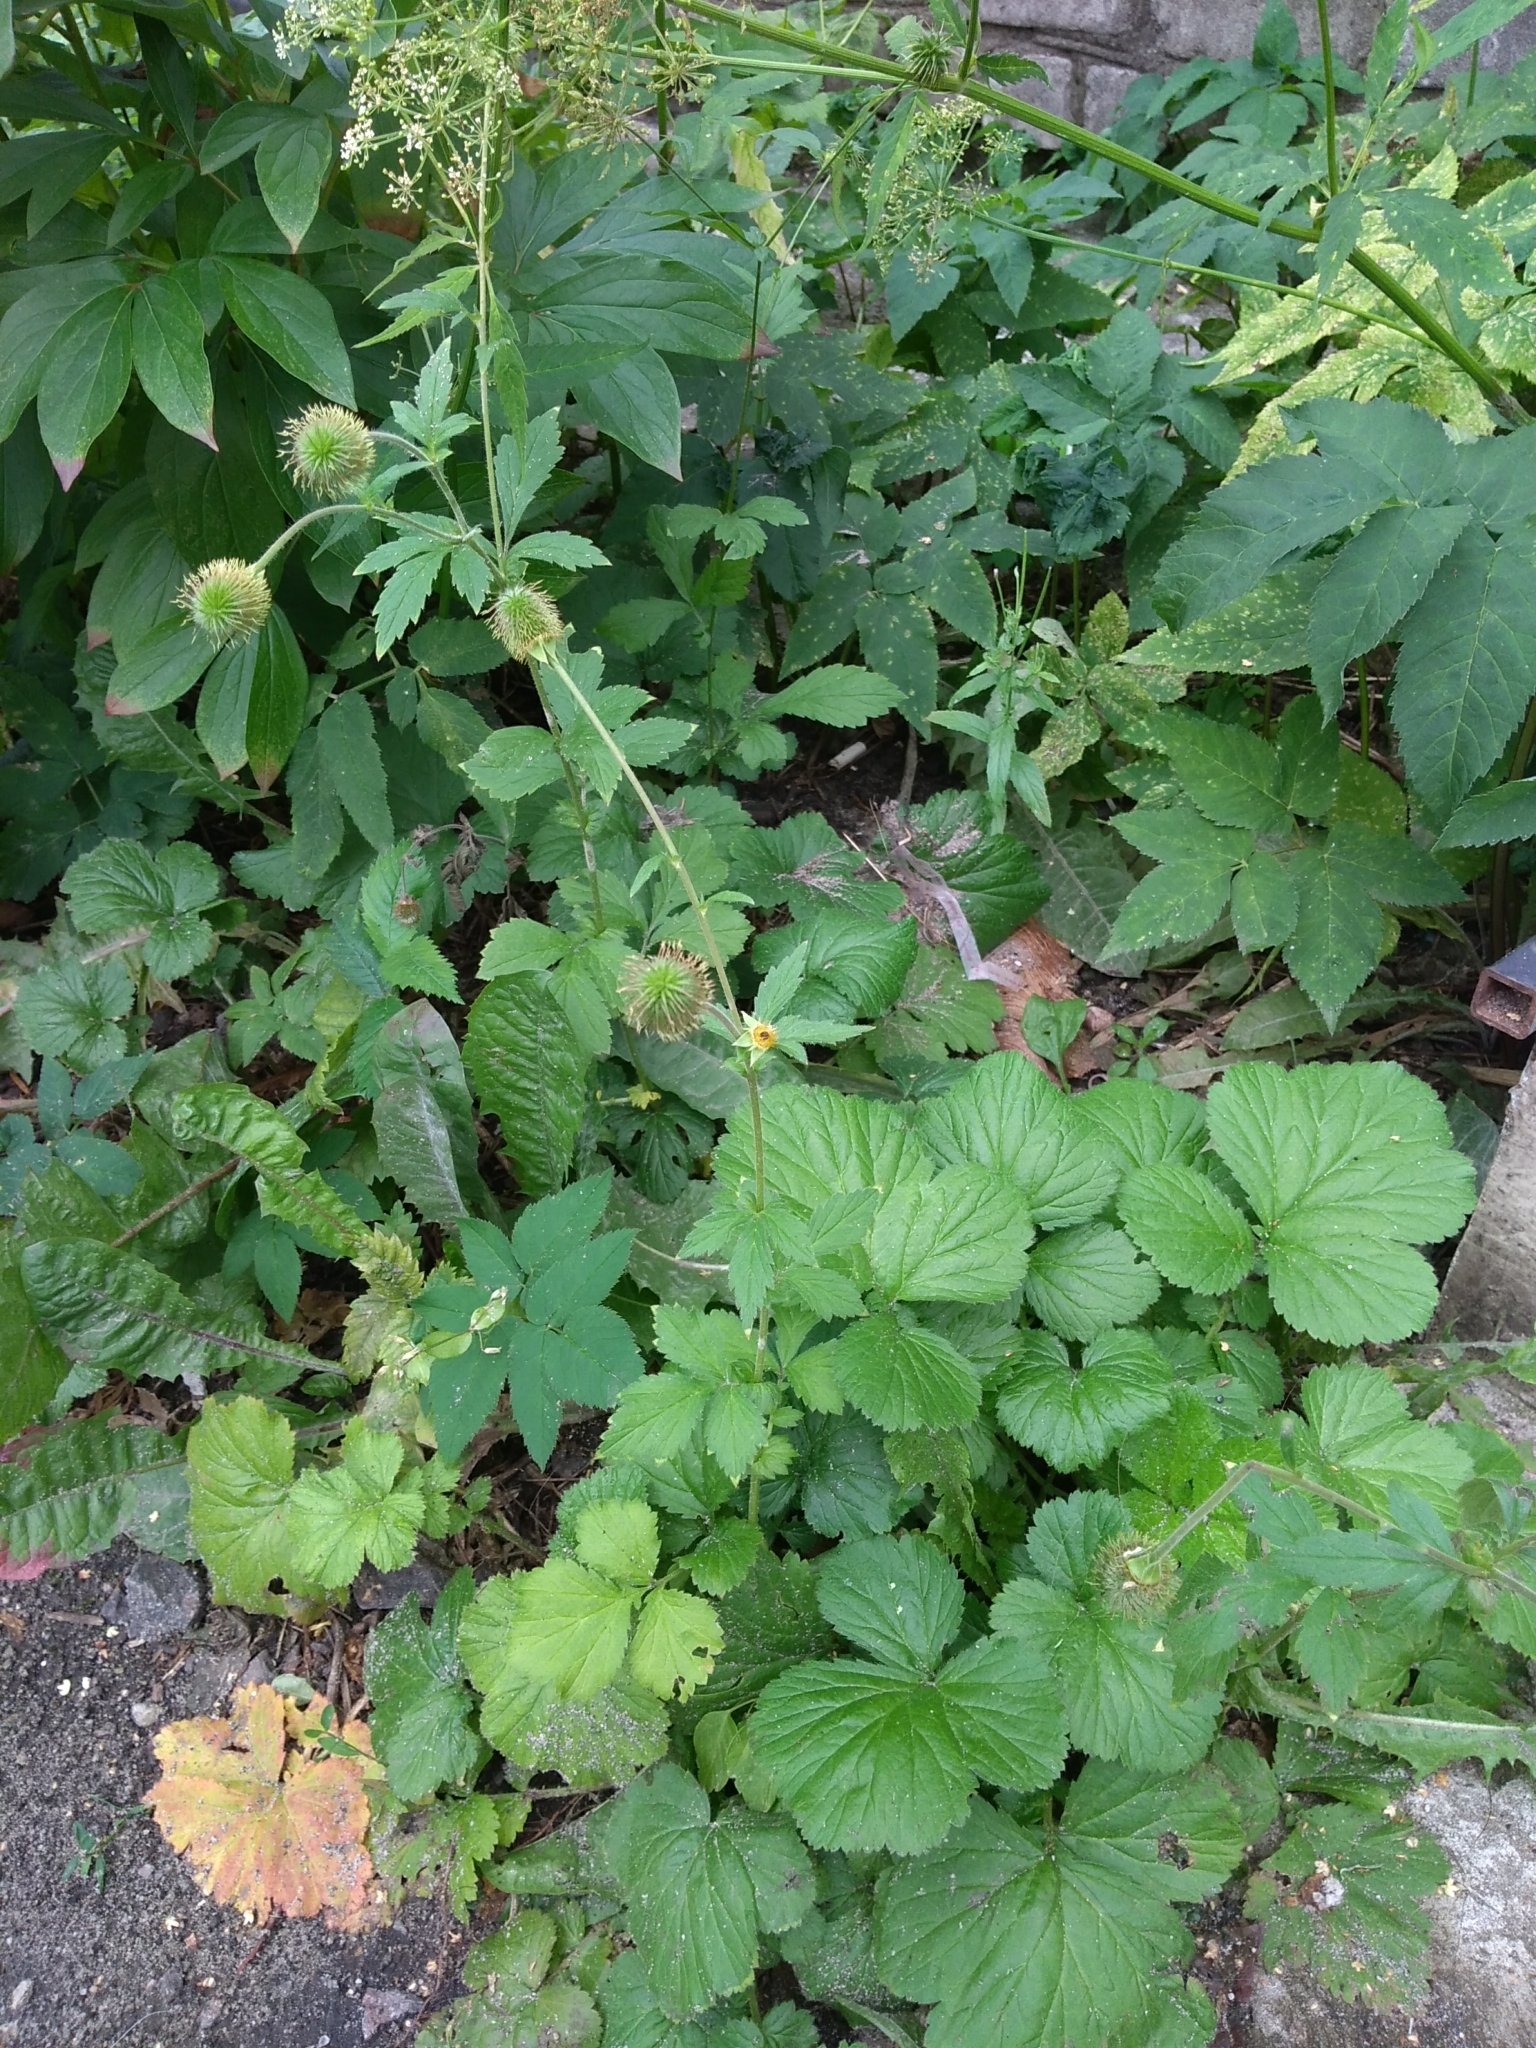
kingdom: Plantae
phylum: Tracheophyta
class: Magnoliopsida
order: Rosales
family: Rosaceae
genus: Geum
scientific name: Geum aleppicum
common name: Yellow avens
